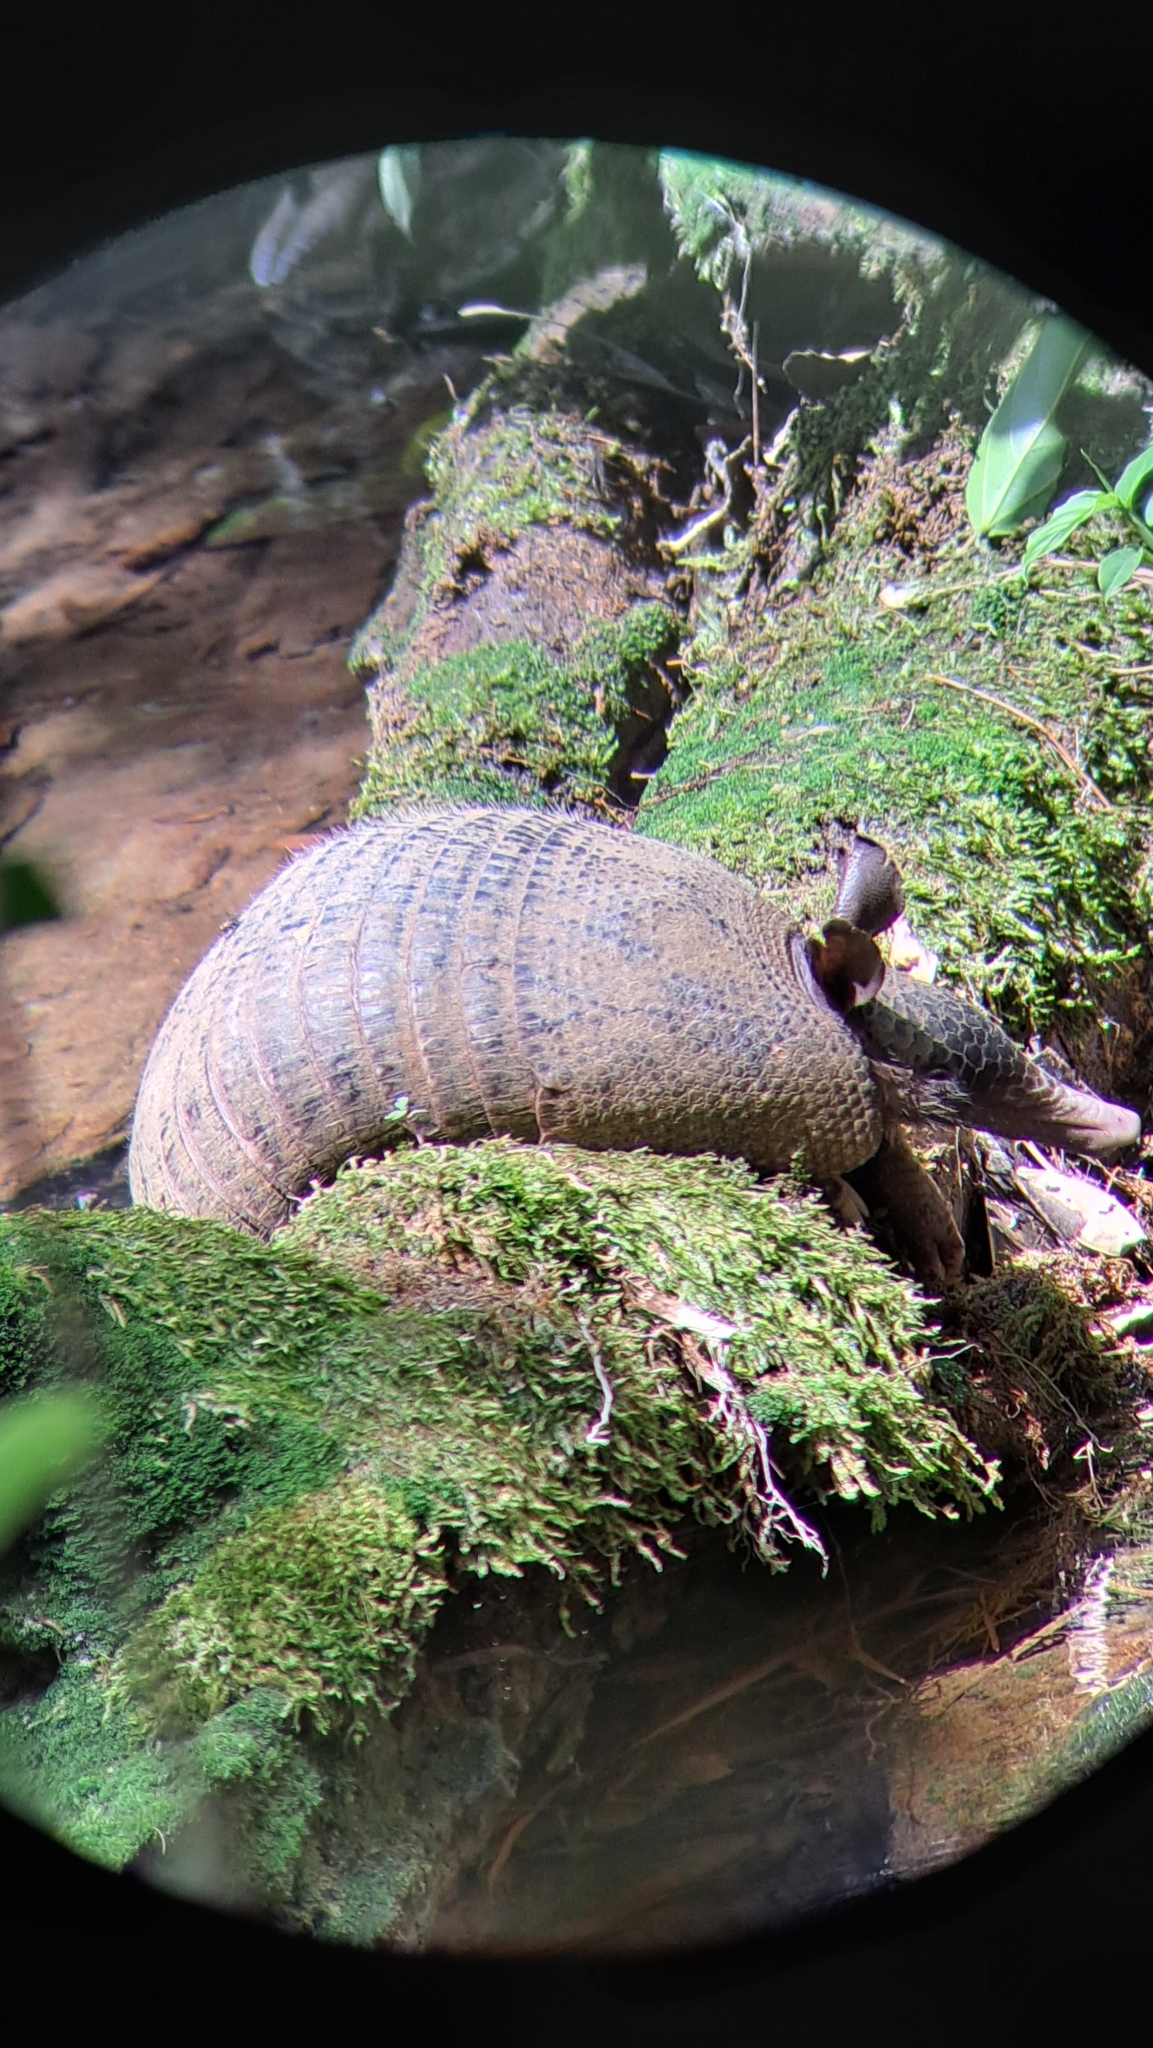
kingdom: Animalia
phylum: Chordata
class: Mammalia
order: Cingulata
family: Dasypodidae
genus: Dasypus
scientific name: Dasypus novemcinctus
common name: Nine-banded armadillo
